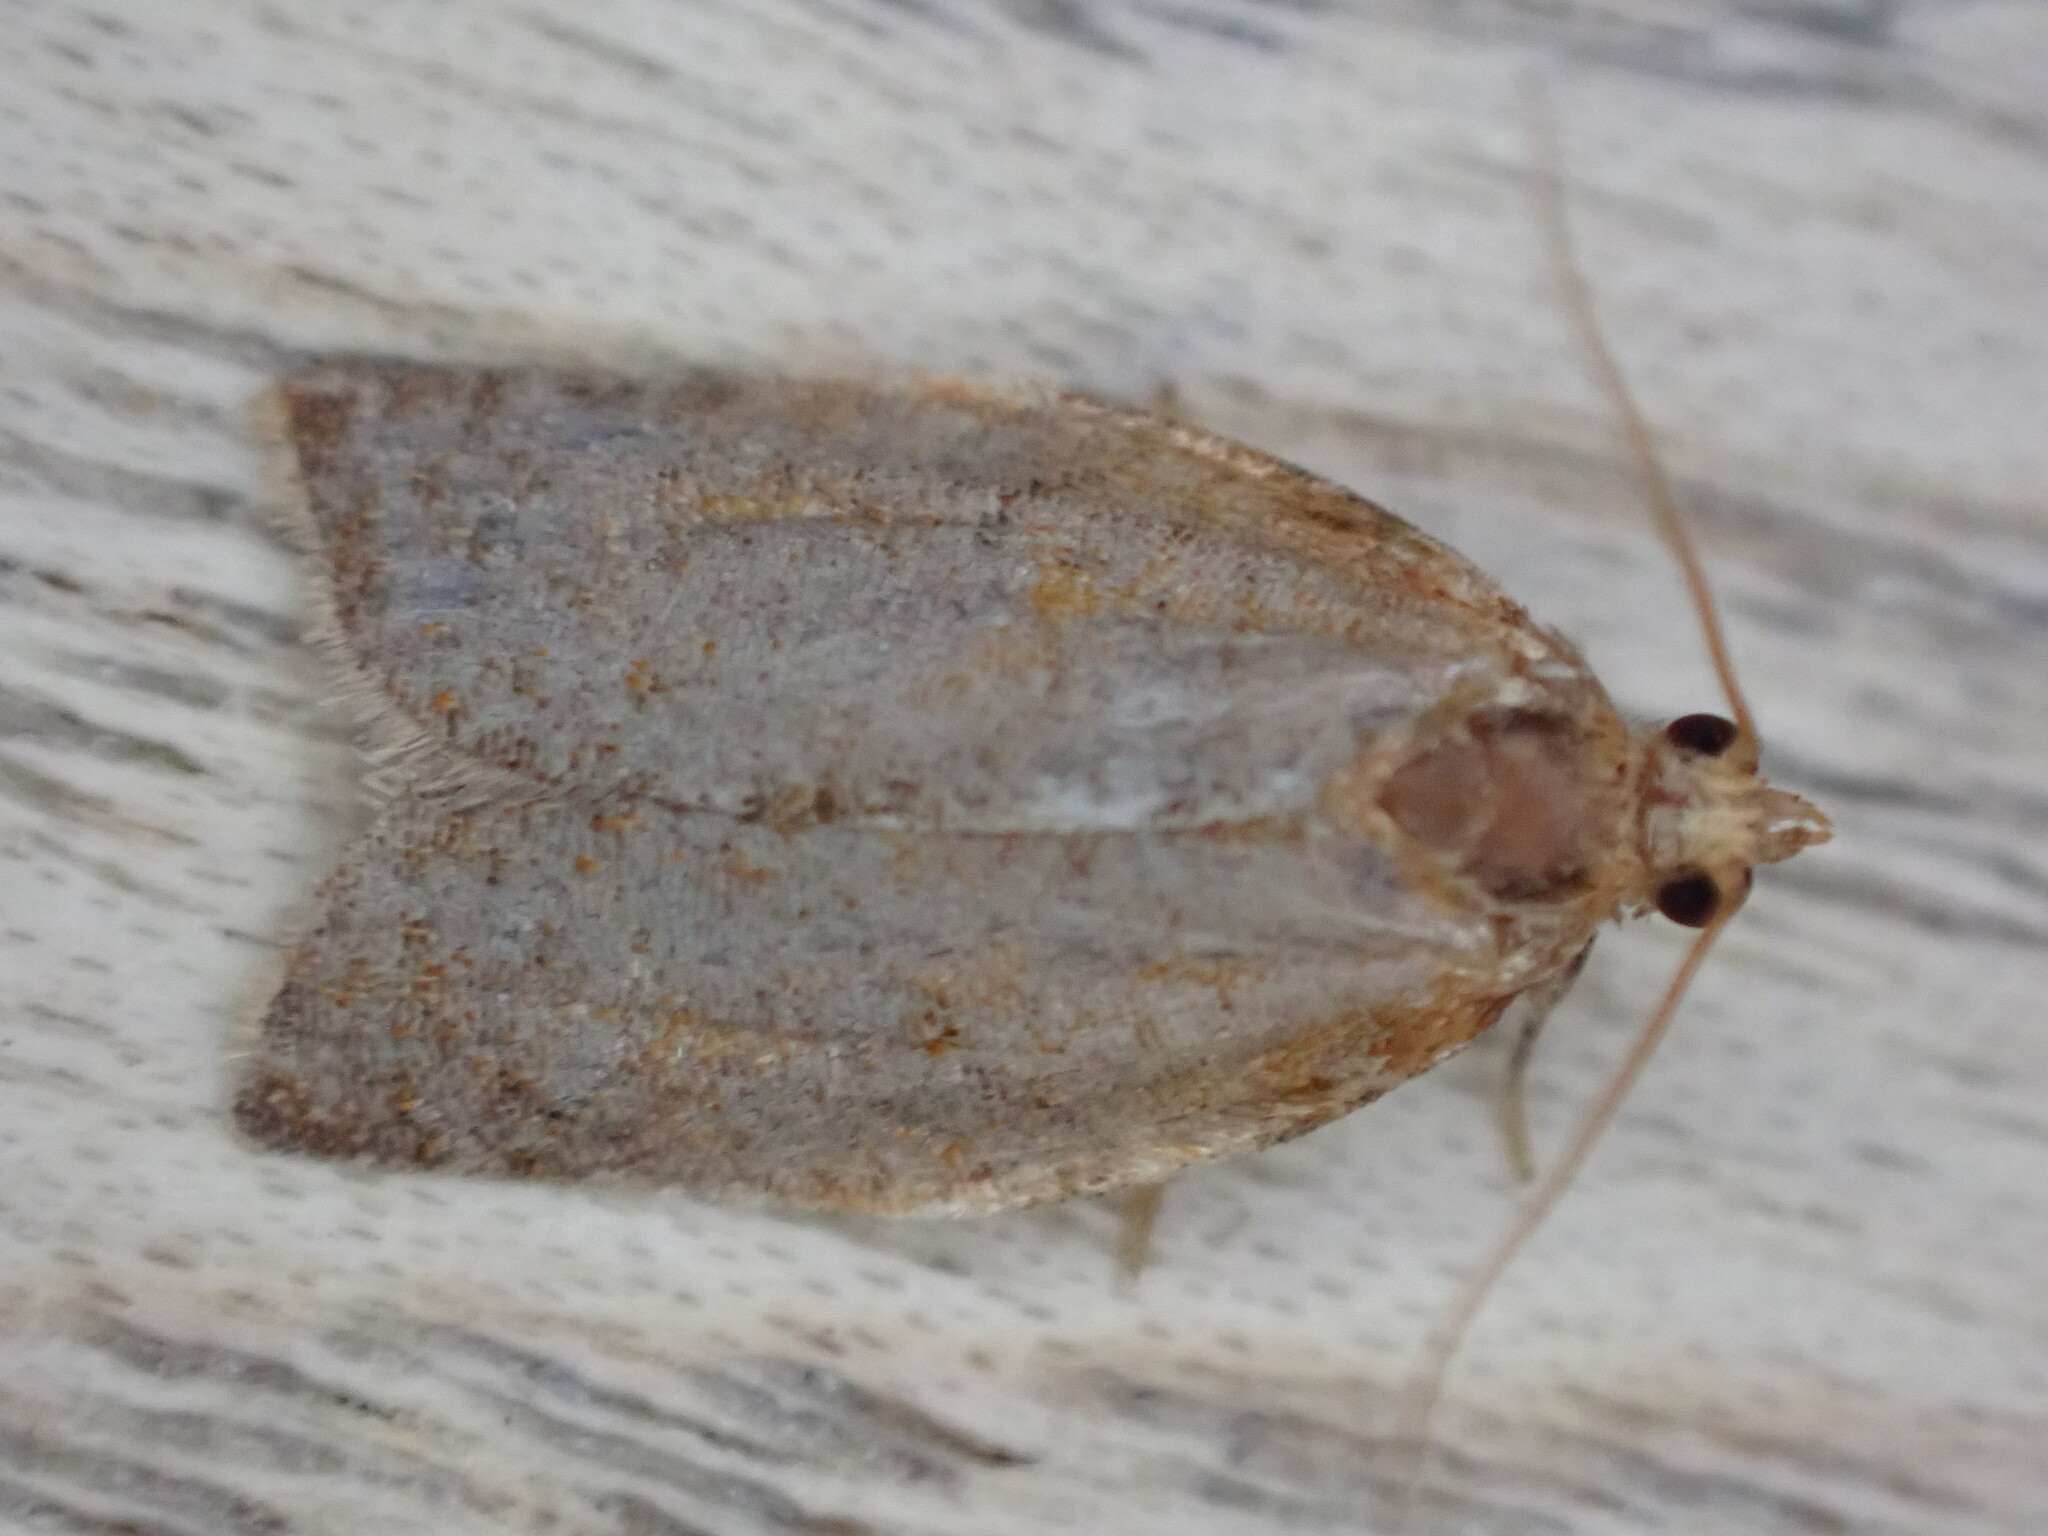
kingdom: Animalia
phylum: Arthropoda
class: Insecta
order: Lepidoptera
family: Tortricidae
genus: Clepsis
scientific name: Clepsis consimilana
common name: Privet tortrix
